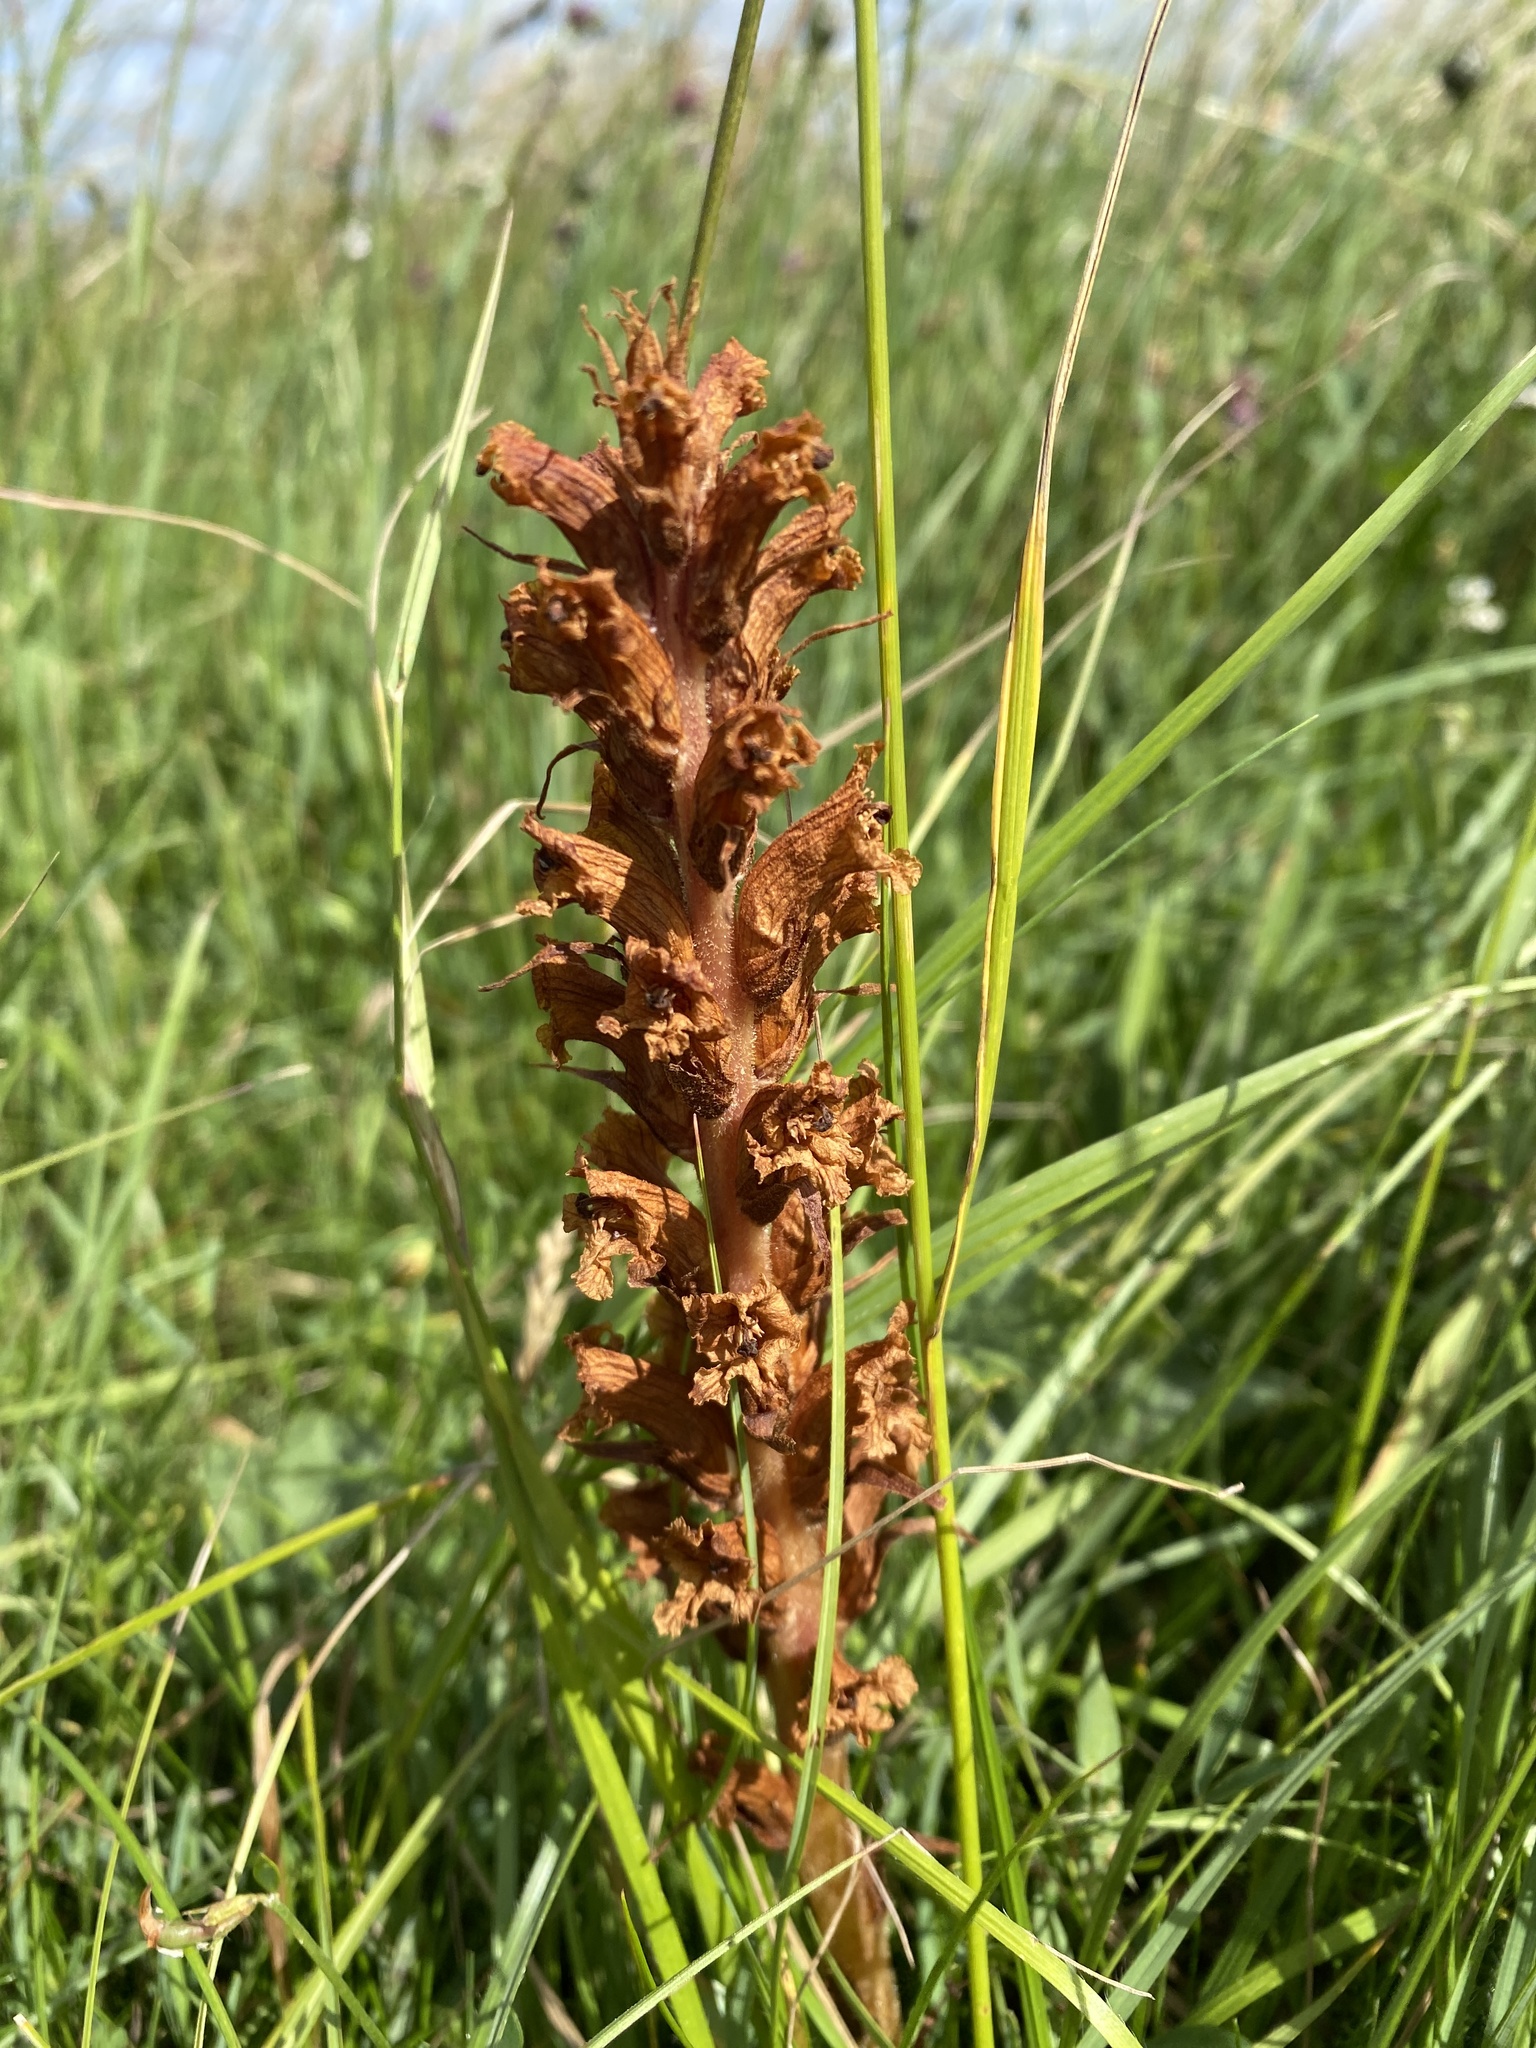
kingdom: Plantae
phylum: Tracheophyta
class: Magnoliopsida
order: Lamiales
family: Orobanchaceae
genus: Orobanche
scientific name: Orobanche elatior
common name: Knapweed broomrape
